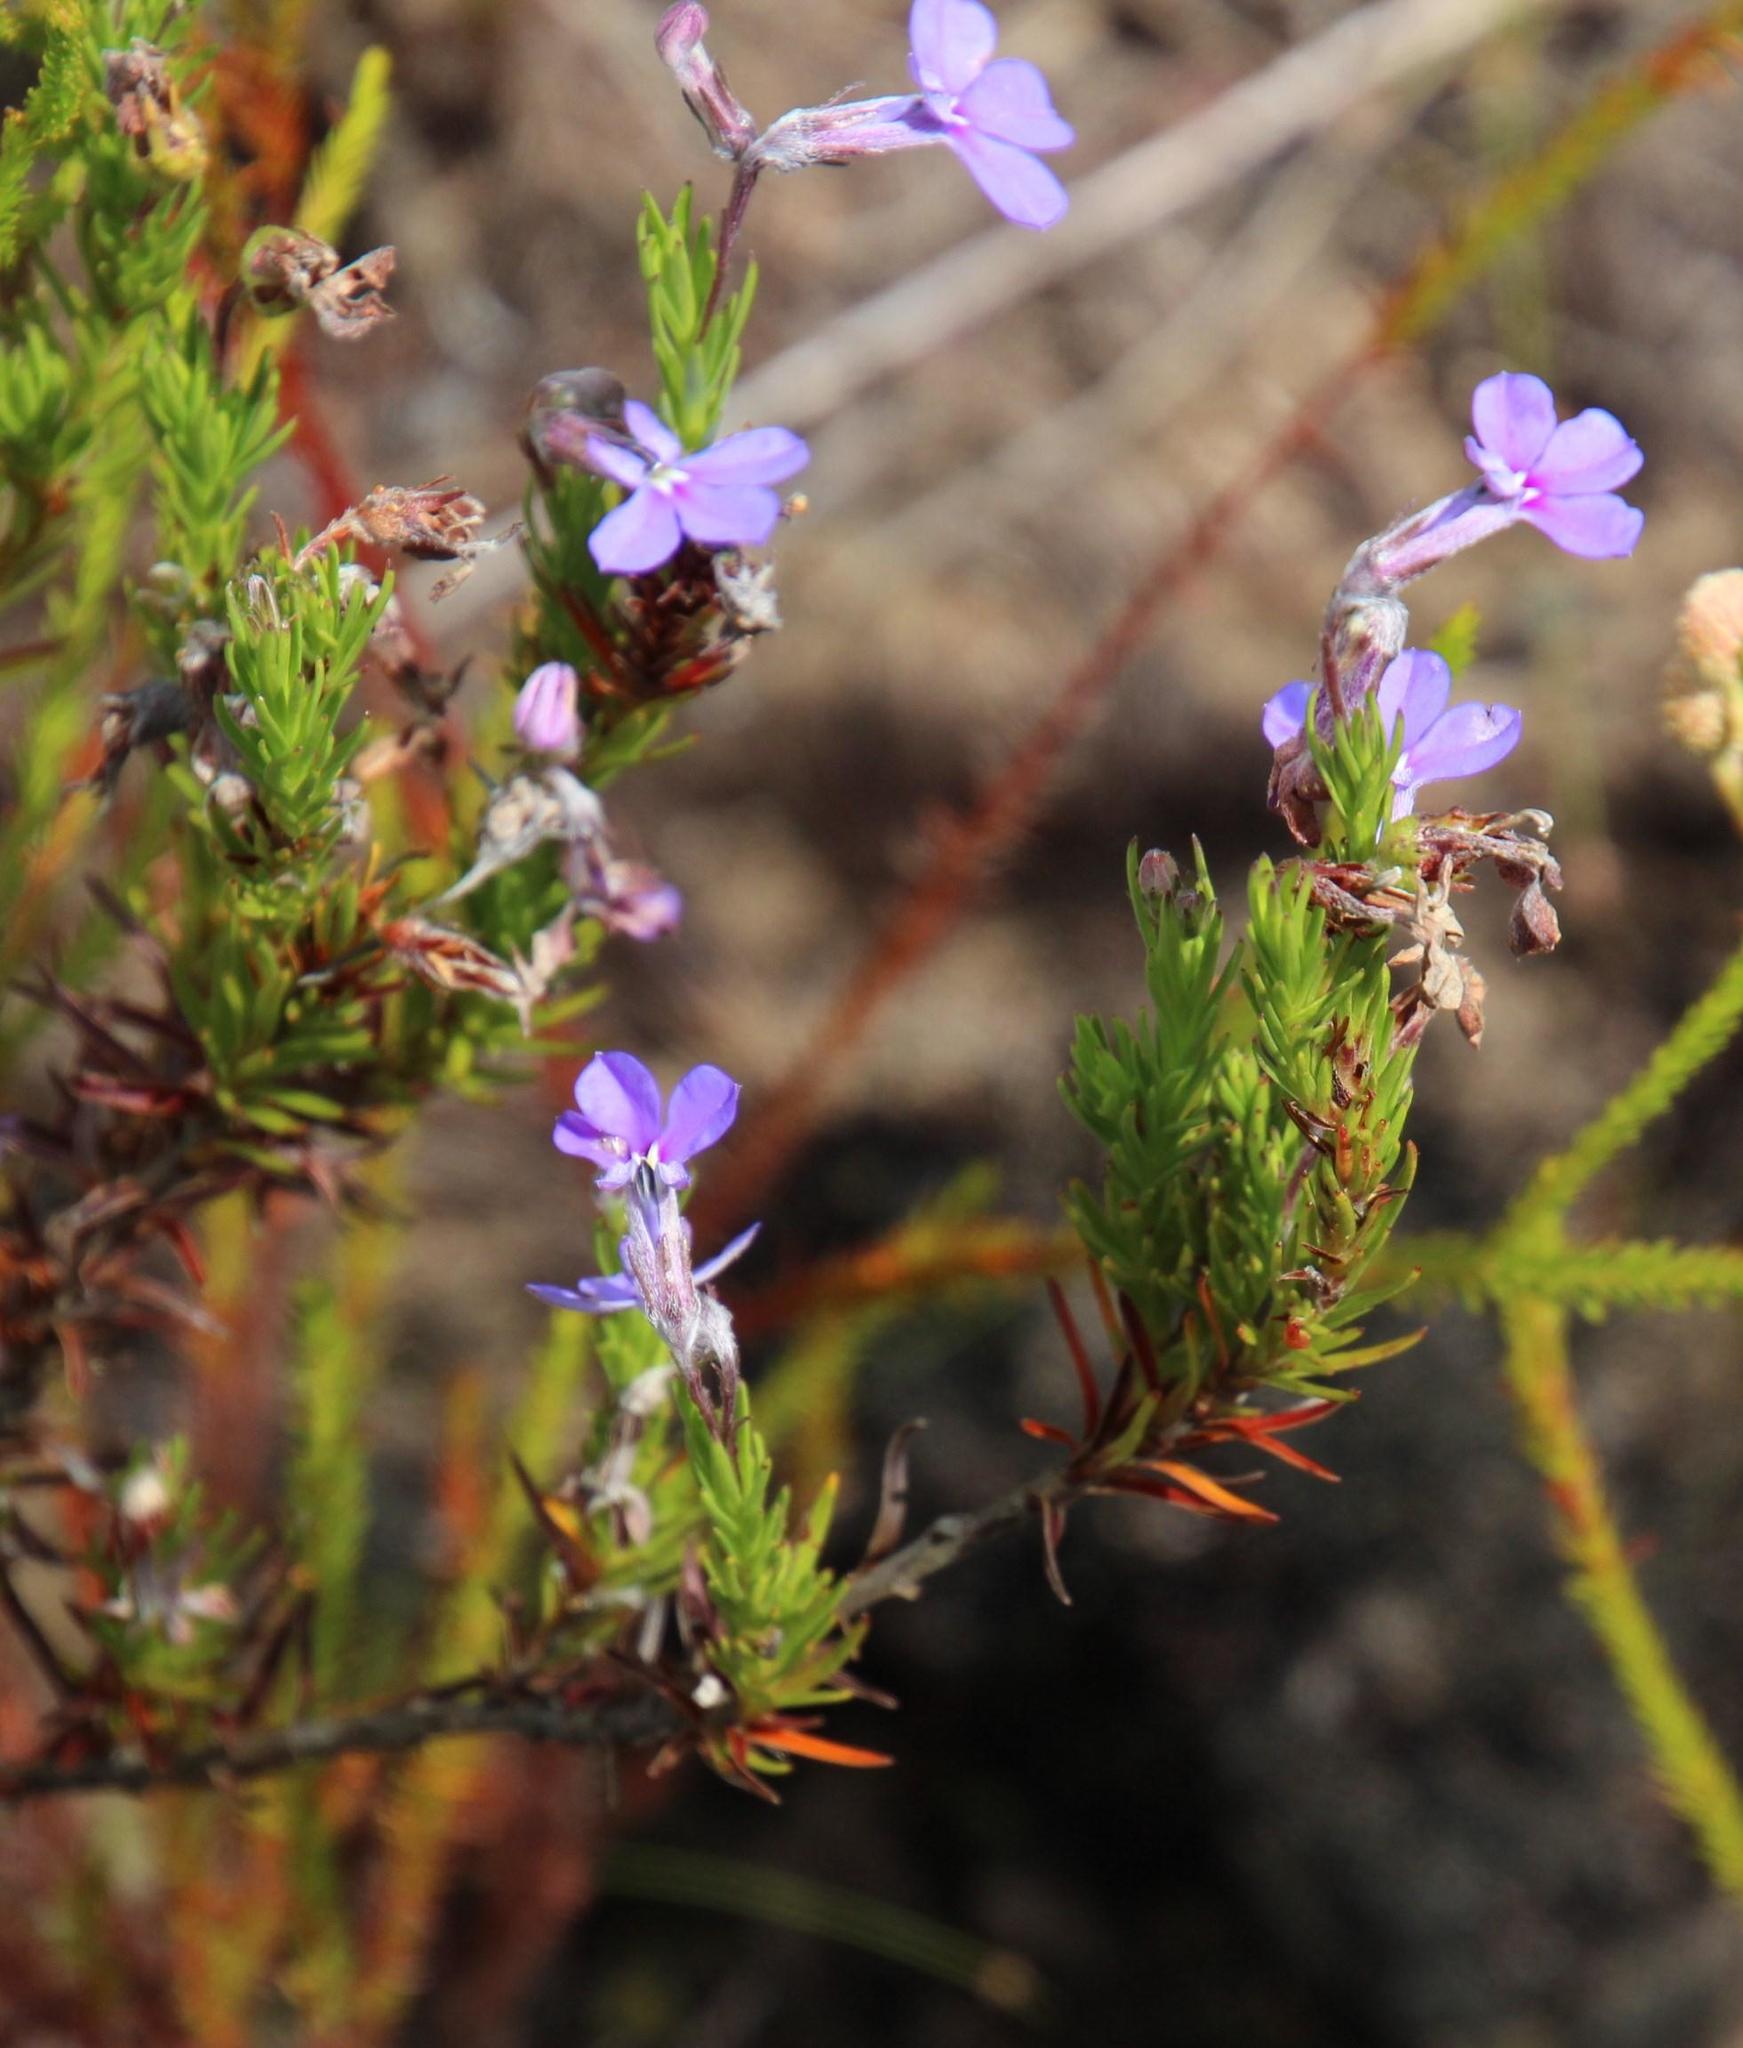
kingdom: Plantae
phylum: Tracheophyta
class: Magnoliopsida
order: Asterales
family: Campanulaceae
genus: Lobelia
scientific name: Lobelia pinifolia
